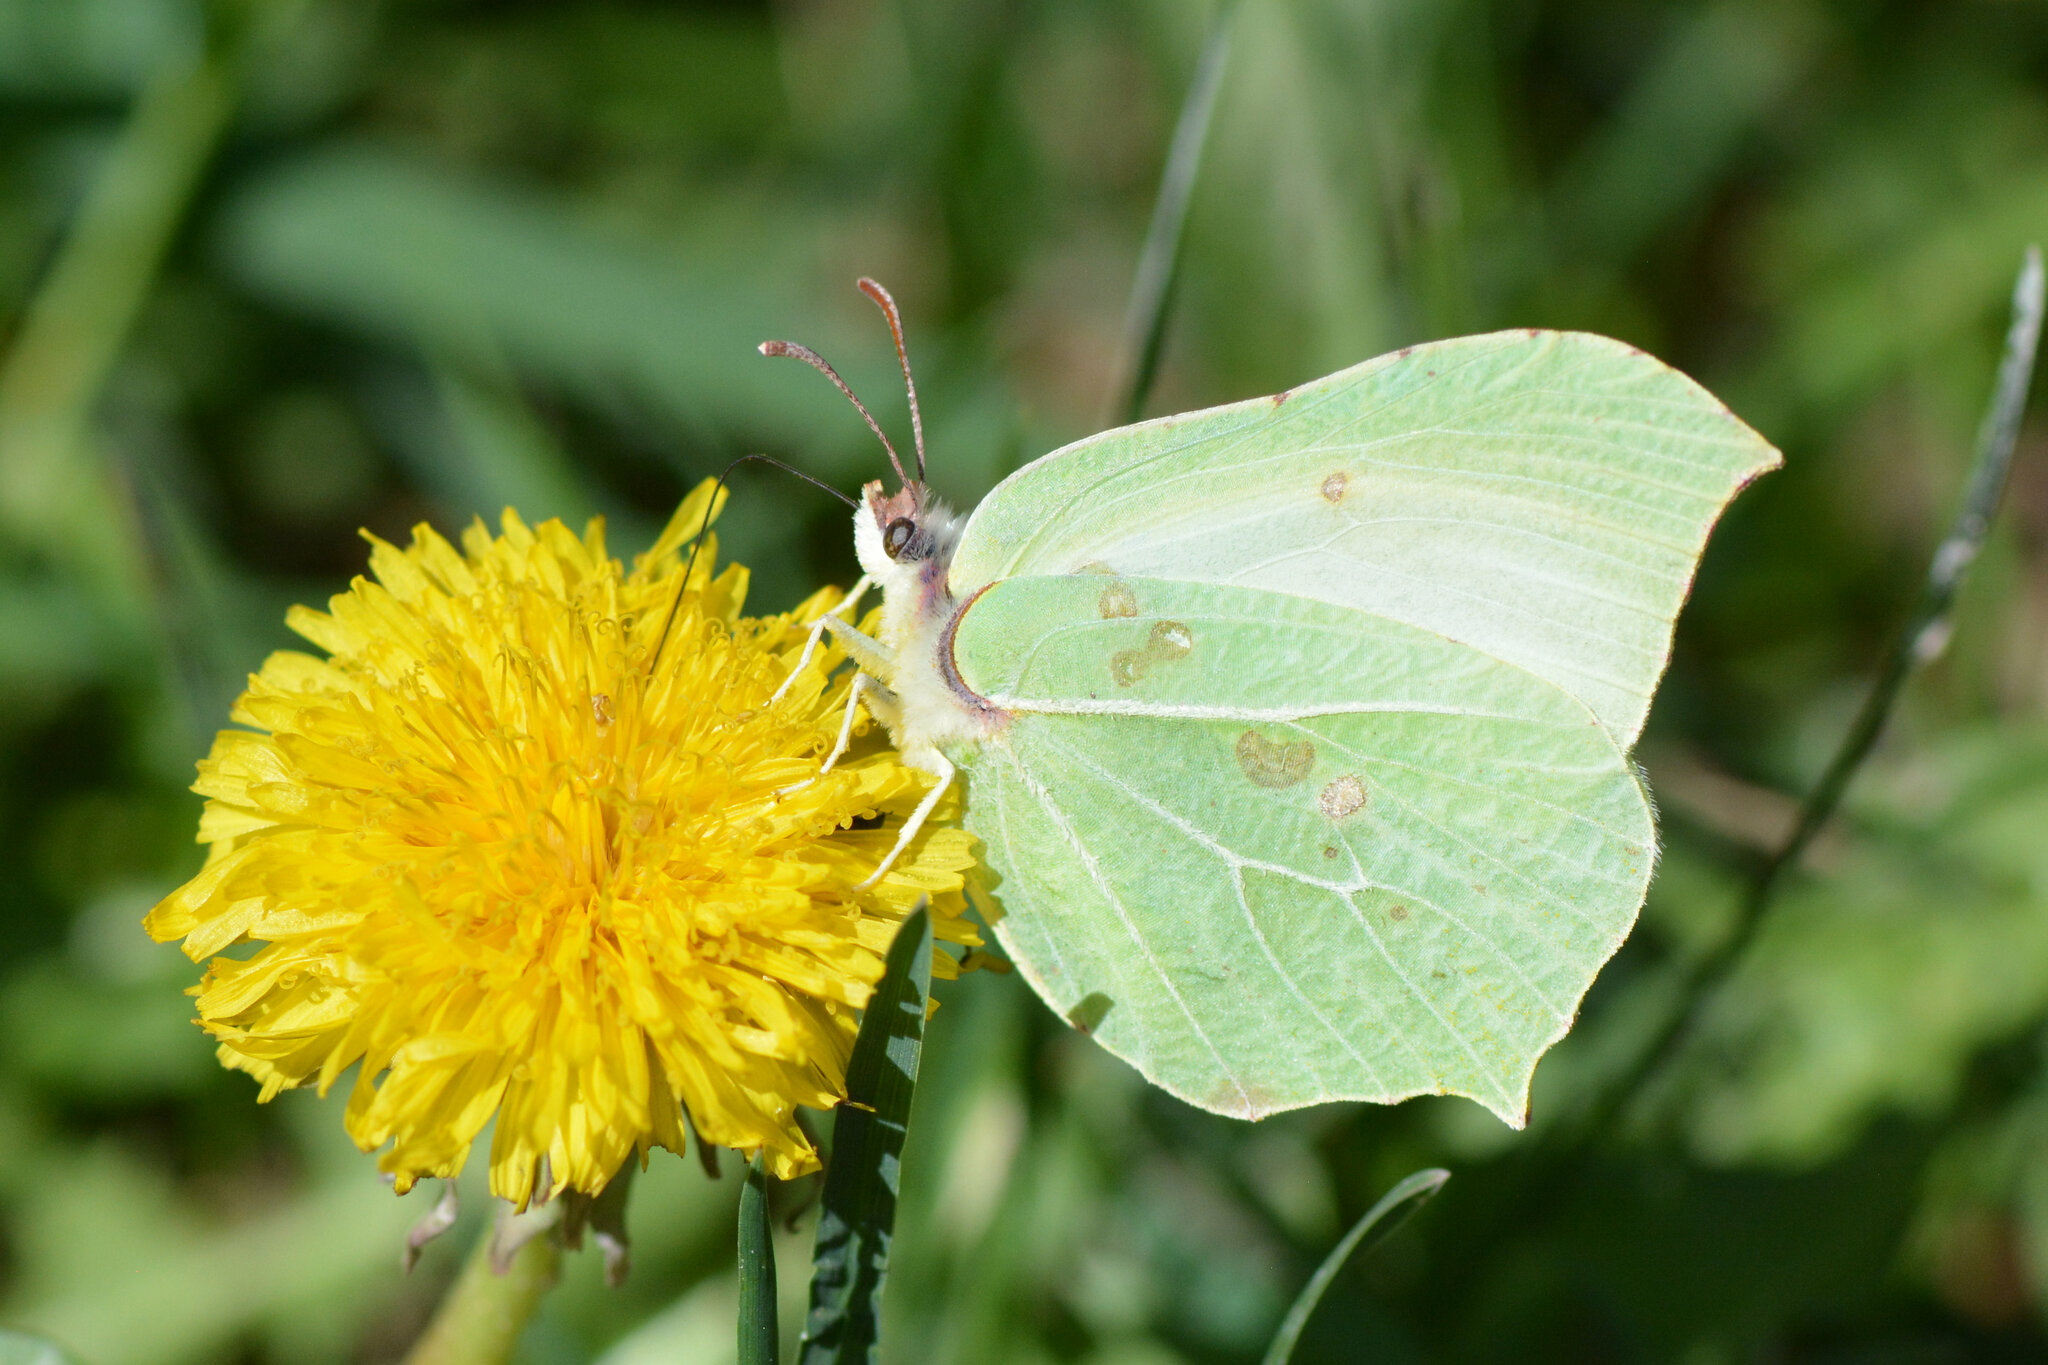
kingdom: Animalia
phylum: Arthropoda
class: Insecta
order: Lepidoptera
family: Pieridae
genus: Gonepteryx
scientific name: Gonepteryx rhamni
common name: Brimstone
